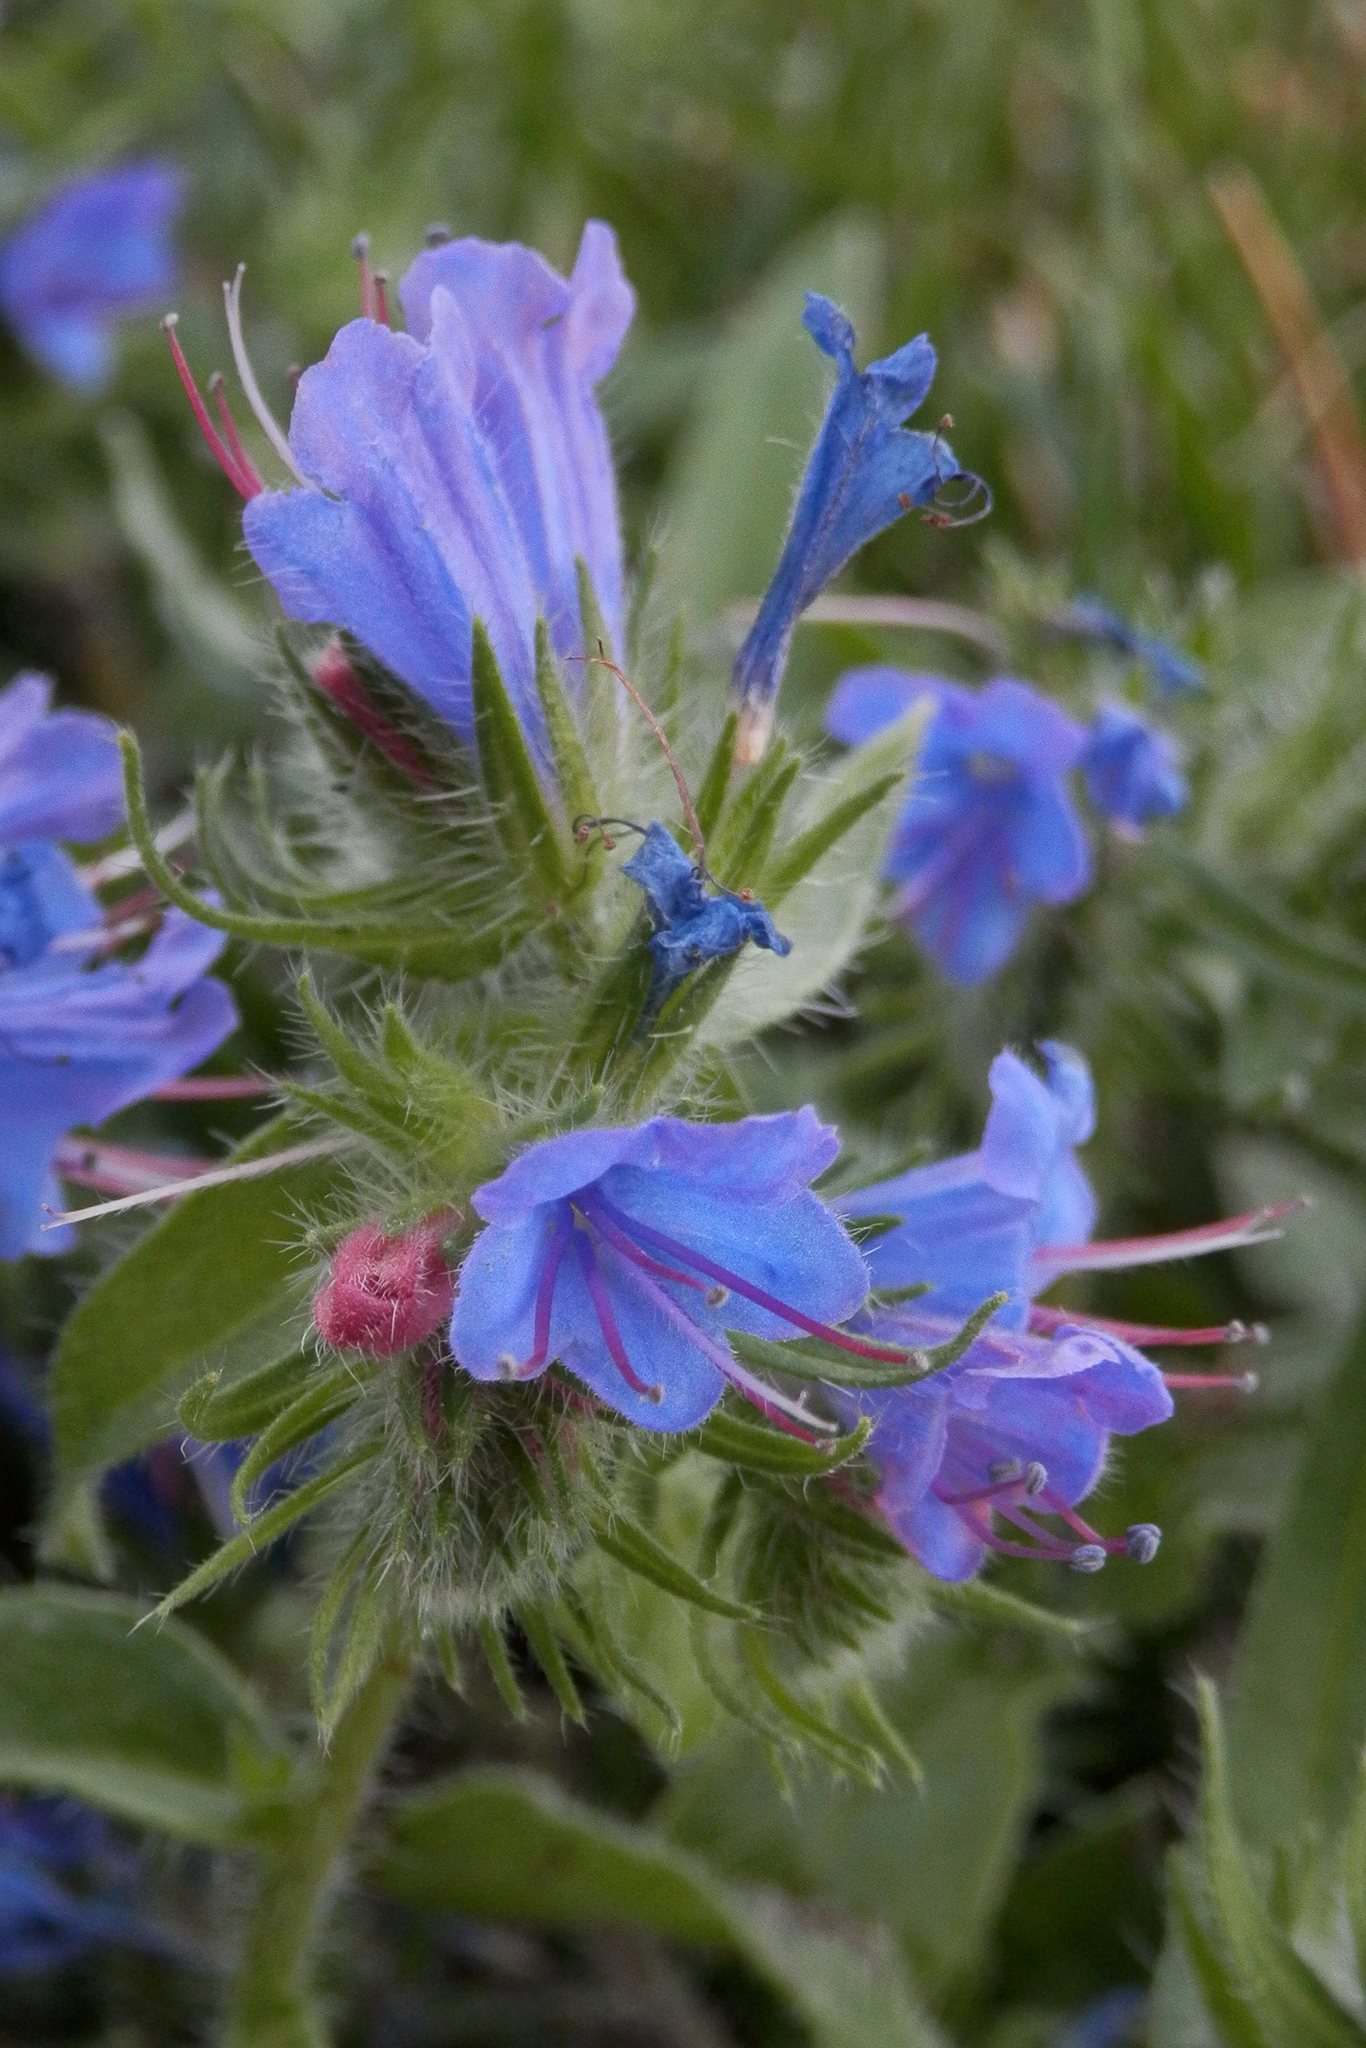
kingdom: Plantae
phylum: Tracheophyta
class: Magnoliopsida
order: Boraginales
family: Boraginaceae
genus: Echium
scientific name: Echium vulgare
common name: Common viper's bugloss
